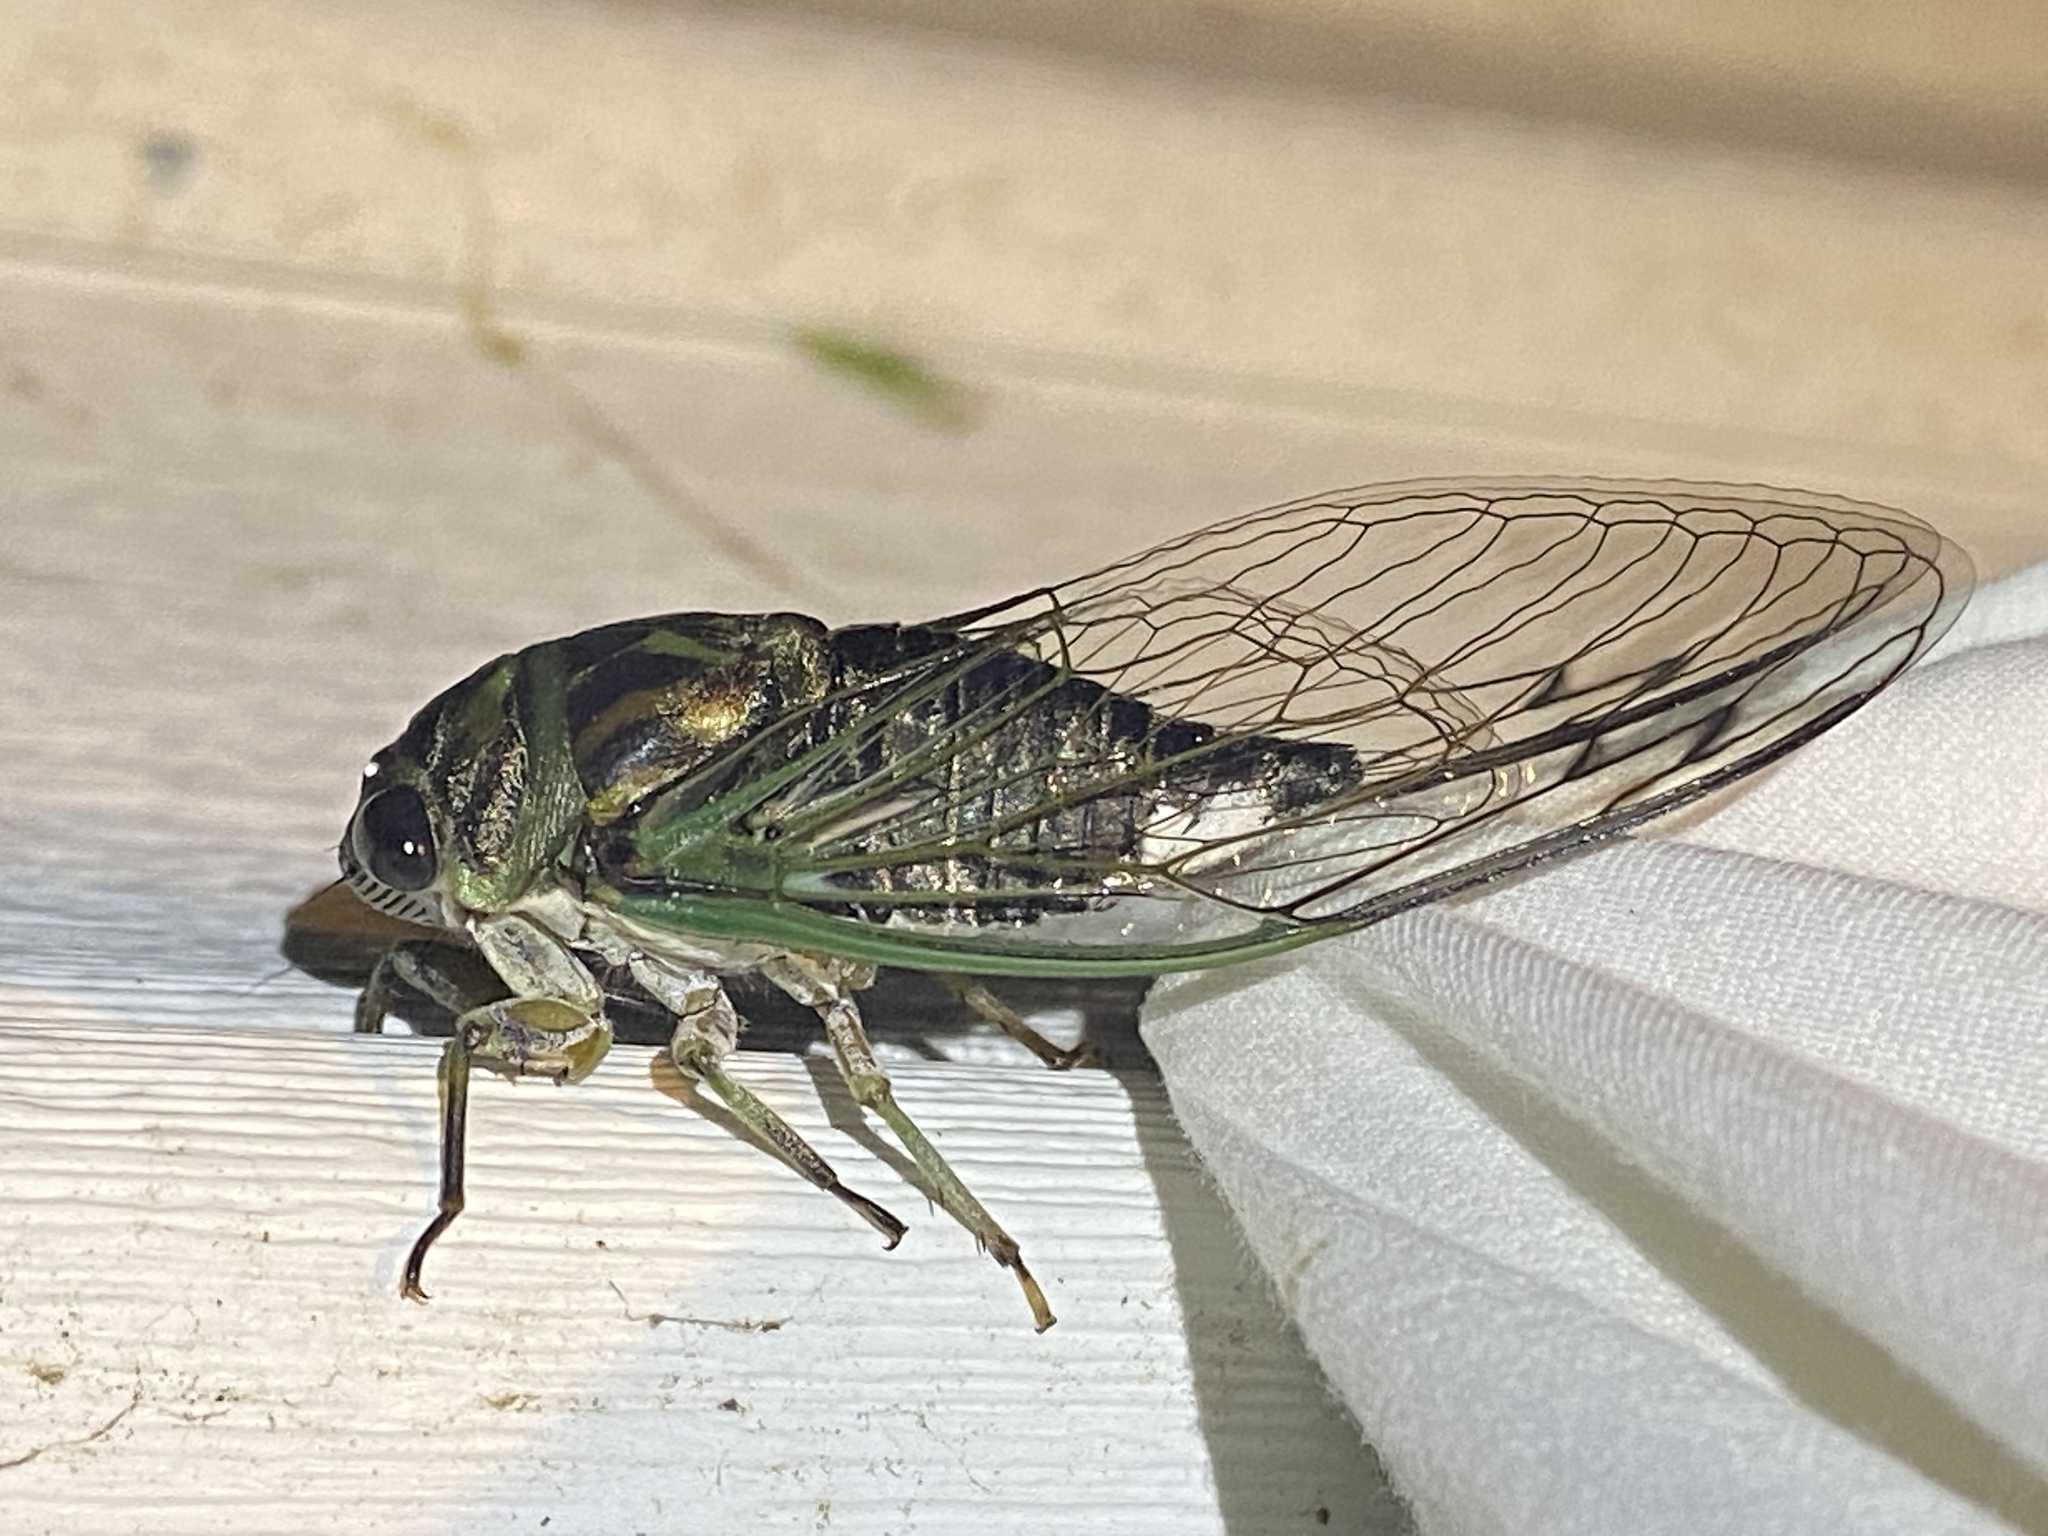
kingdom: Animalia
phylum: Arthropoda
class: Insecta
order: Hemiptera
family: Cicadidae
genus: Neotibicen
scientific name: Neotibicen linnei
